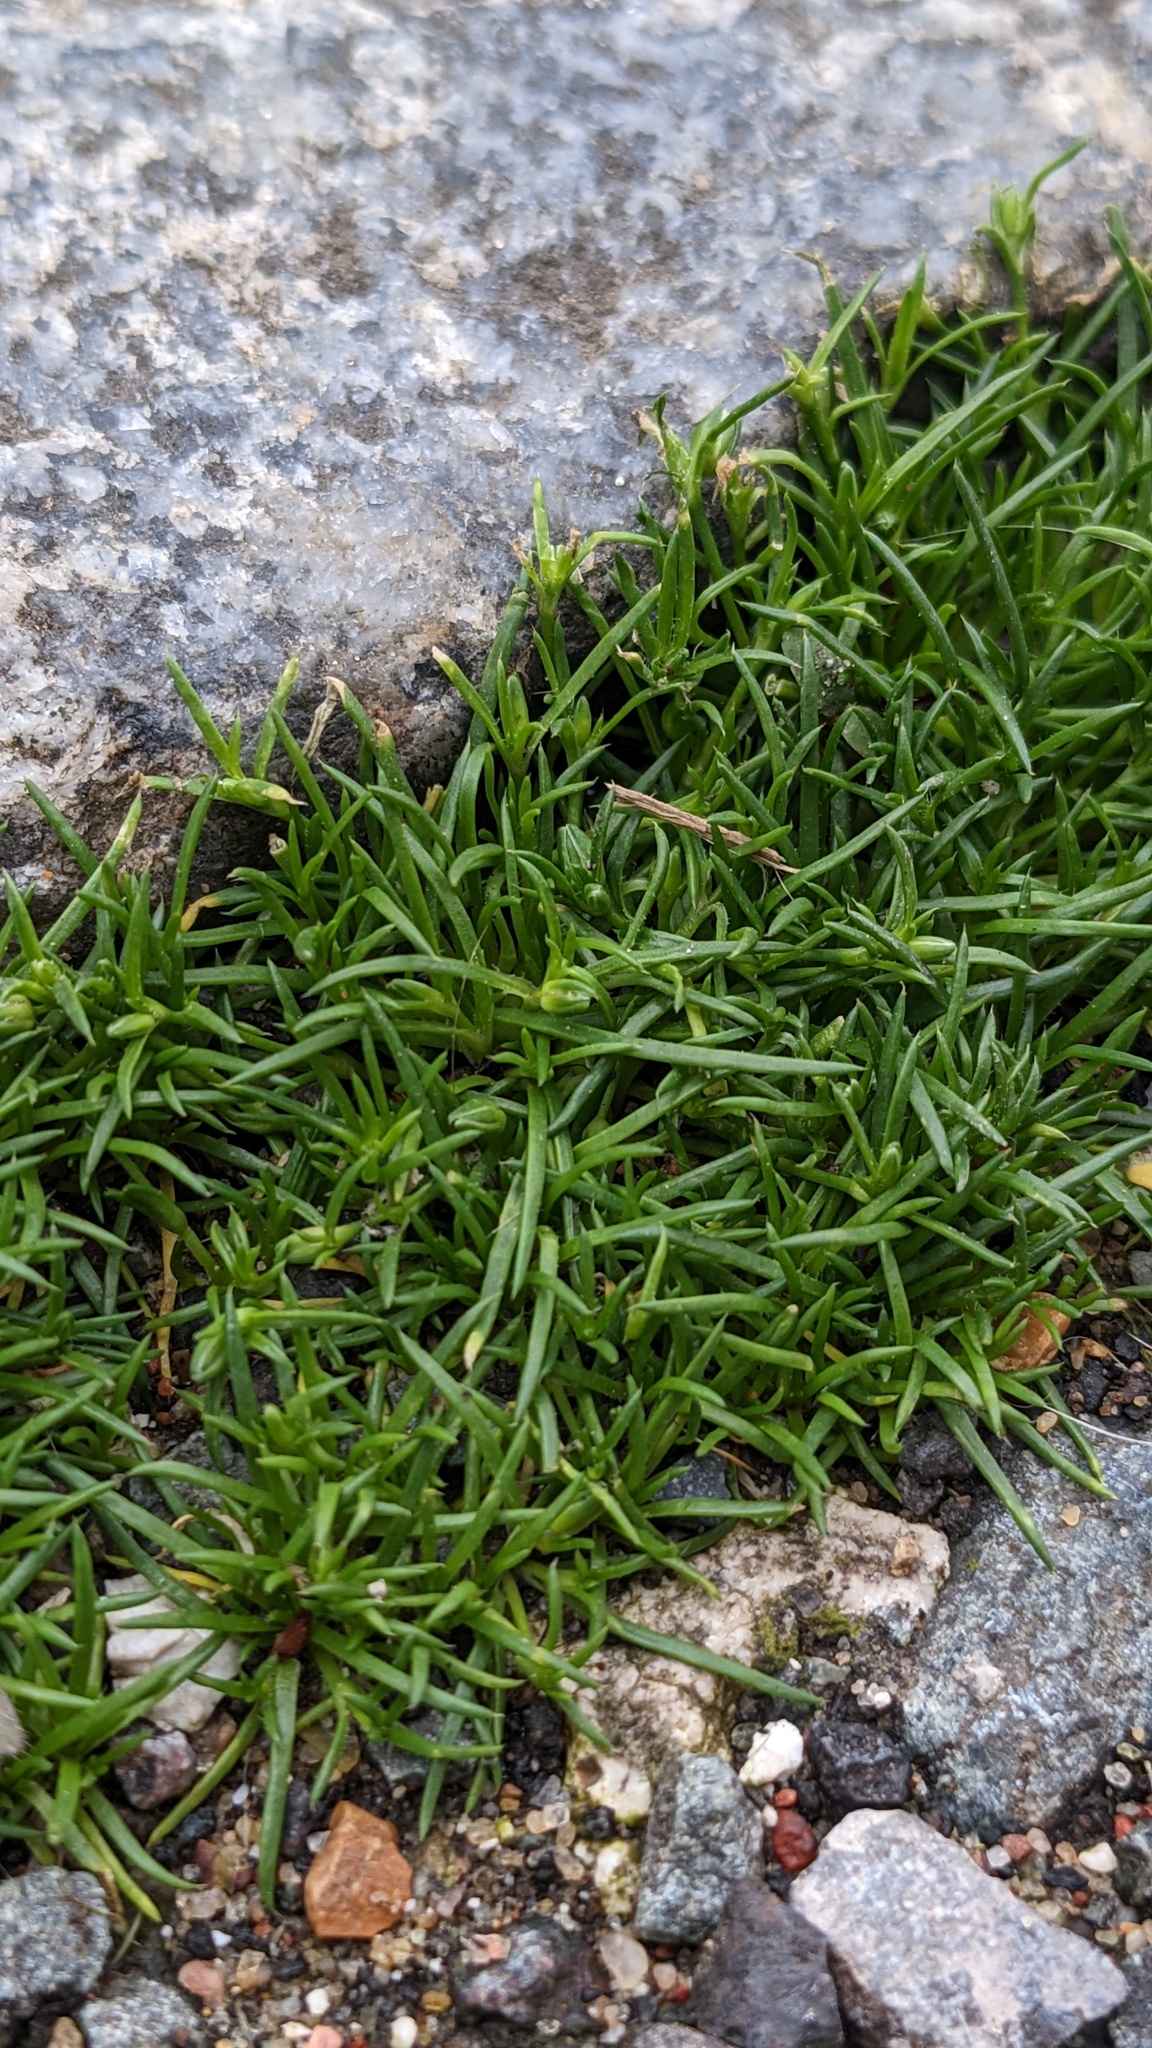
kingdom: Plantae
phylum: Tracheophyta
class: Magnoliopsida
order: Caryophyllales
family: Caryophyllaceae
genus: Sagina
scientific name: Sagina procumbens
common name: Procumbent pearlwort
